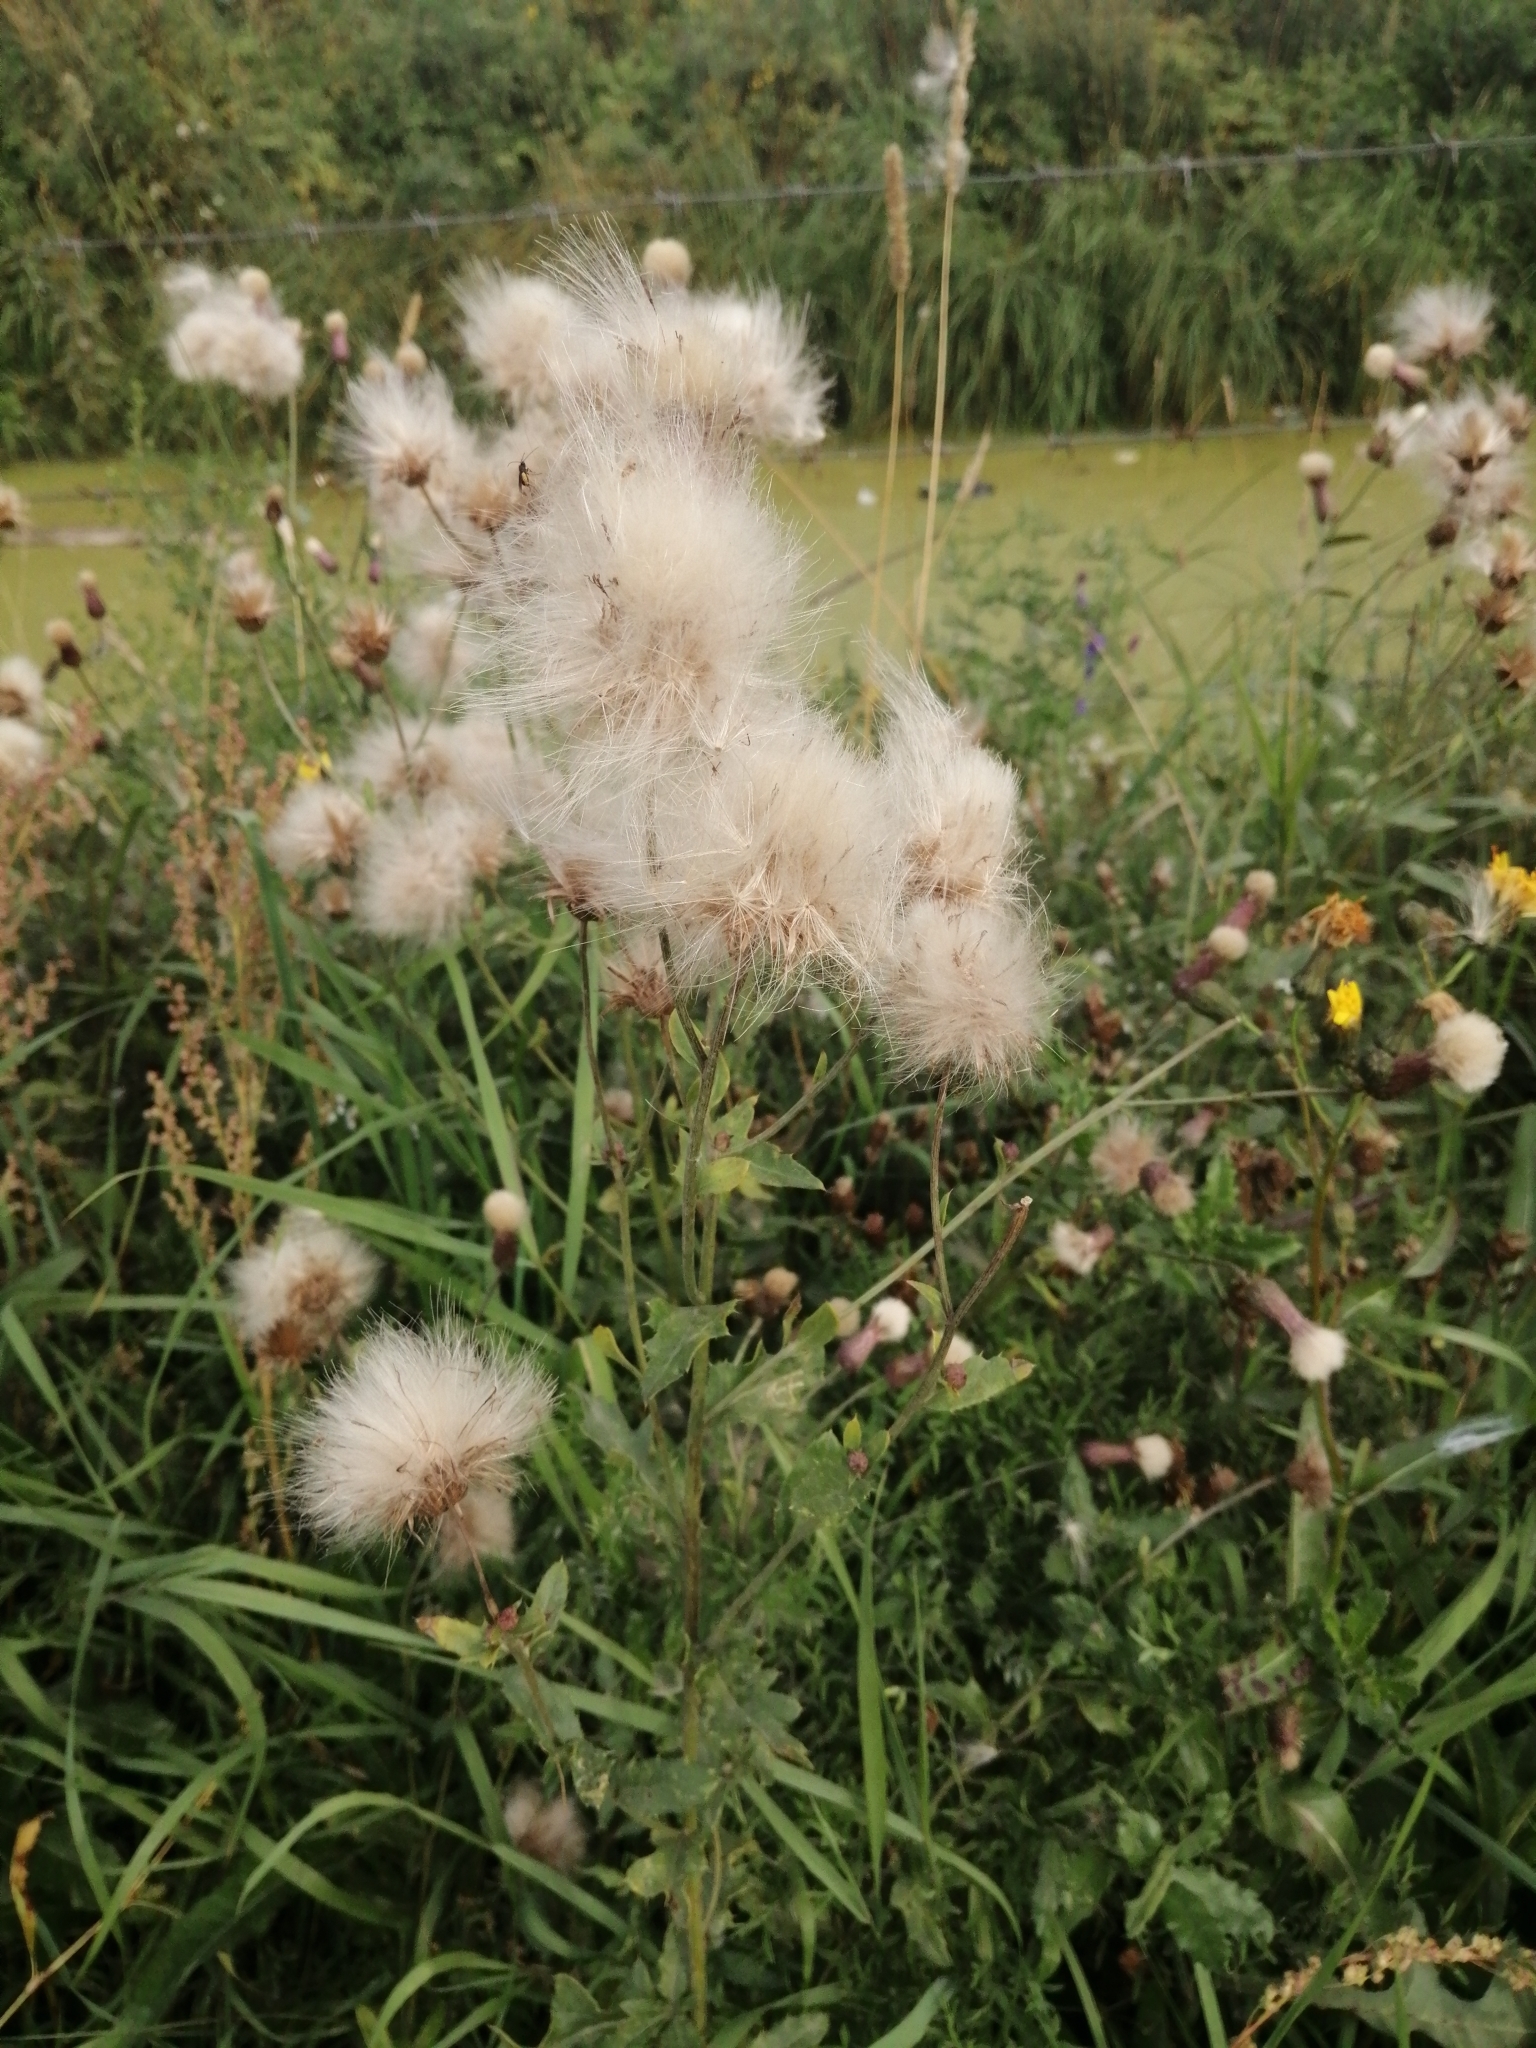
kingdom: Plantae
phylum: Tracheophyta
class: Magnoliopsida
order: Asterales
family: Asteraceae
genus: Cirsium
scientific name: Cirsium arvense
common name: Creeping thistle
